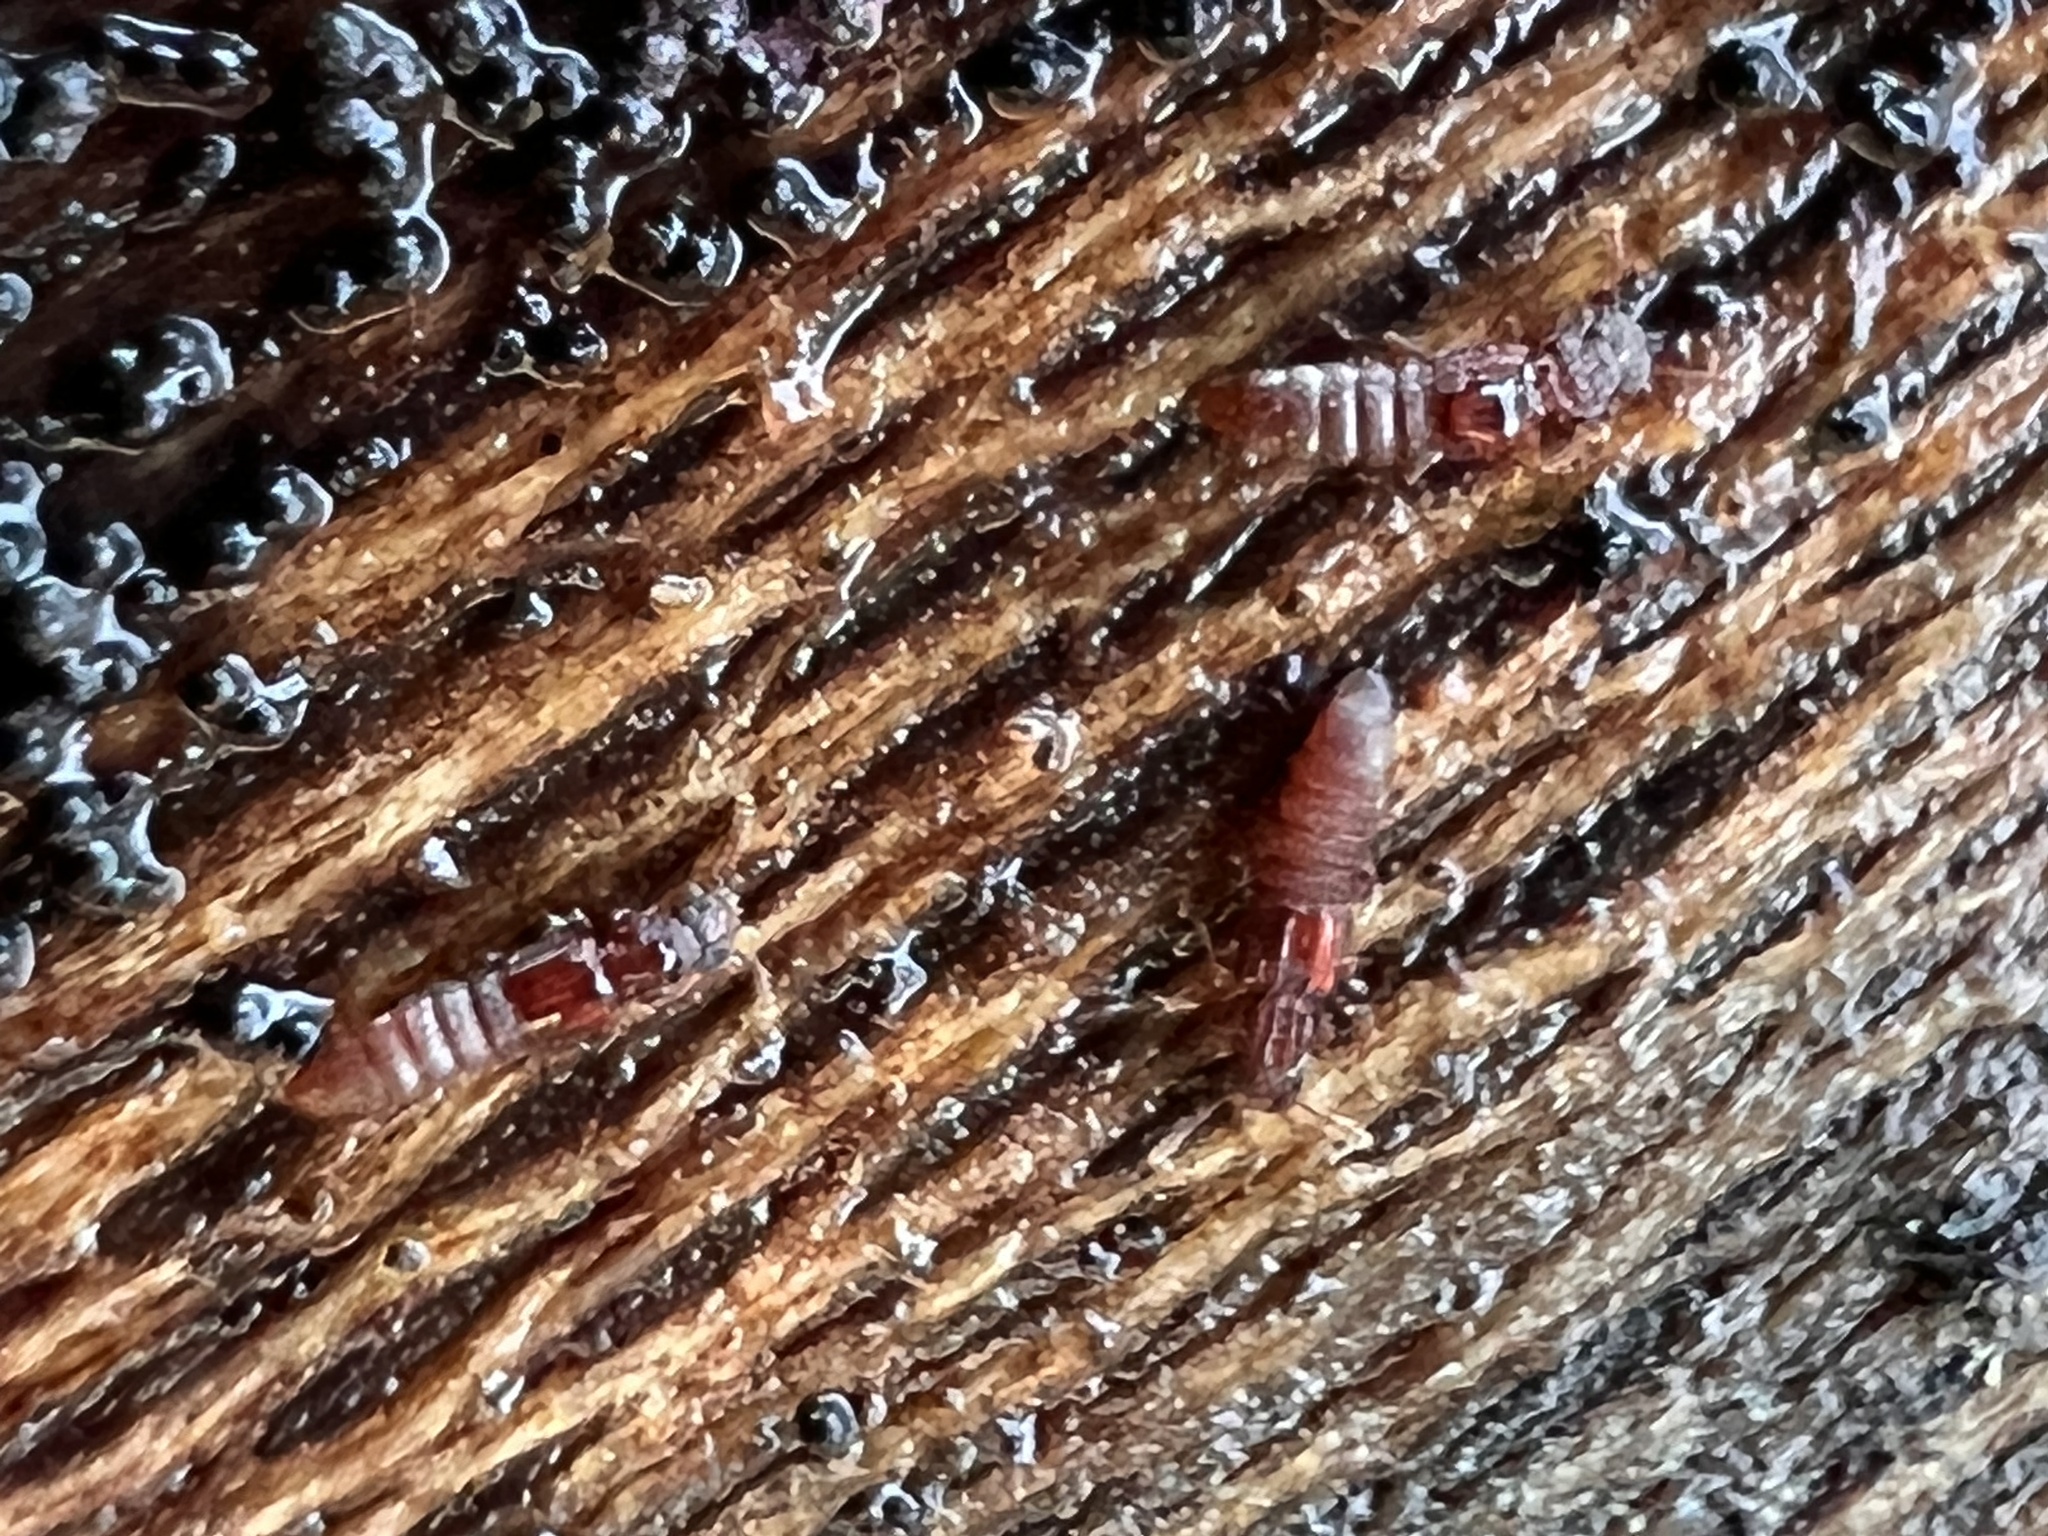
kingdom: Animalia
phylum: Arthropoda
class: Insecta
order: Coleoptera
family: Staphylinidae
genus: Thoracophorus
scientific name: Thoracophorus costalis
